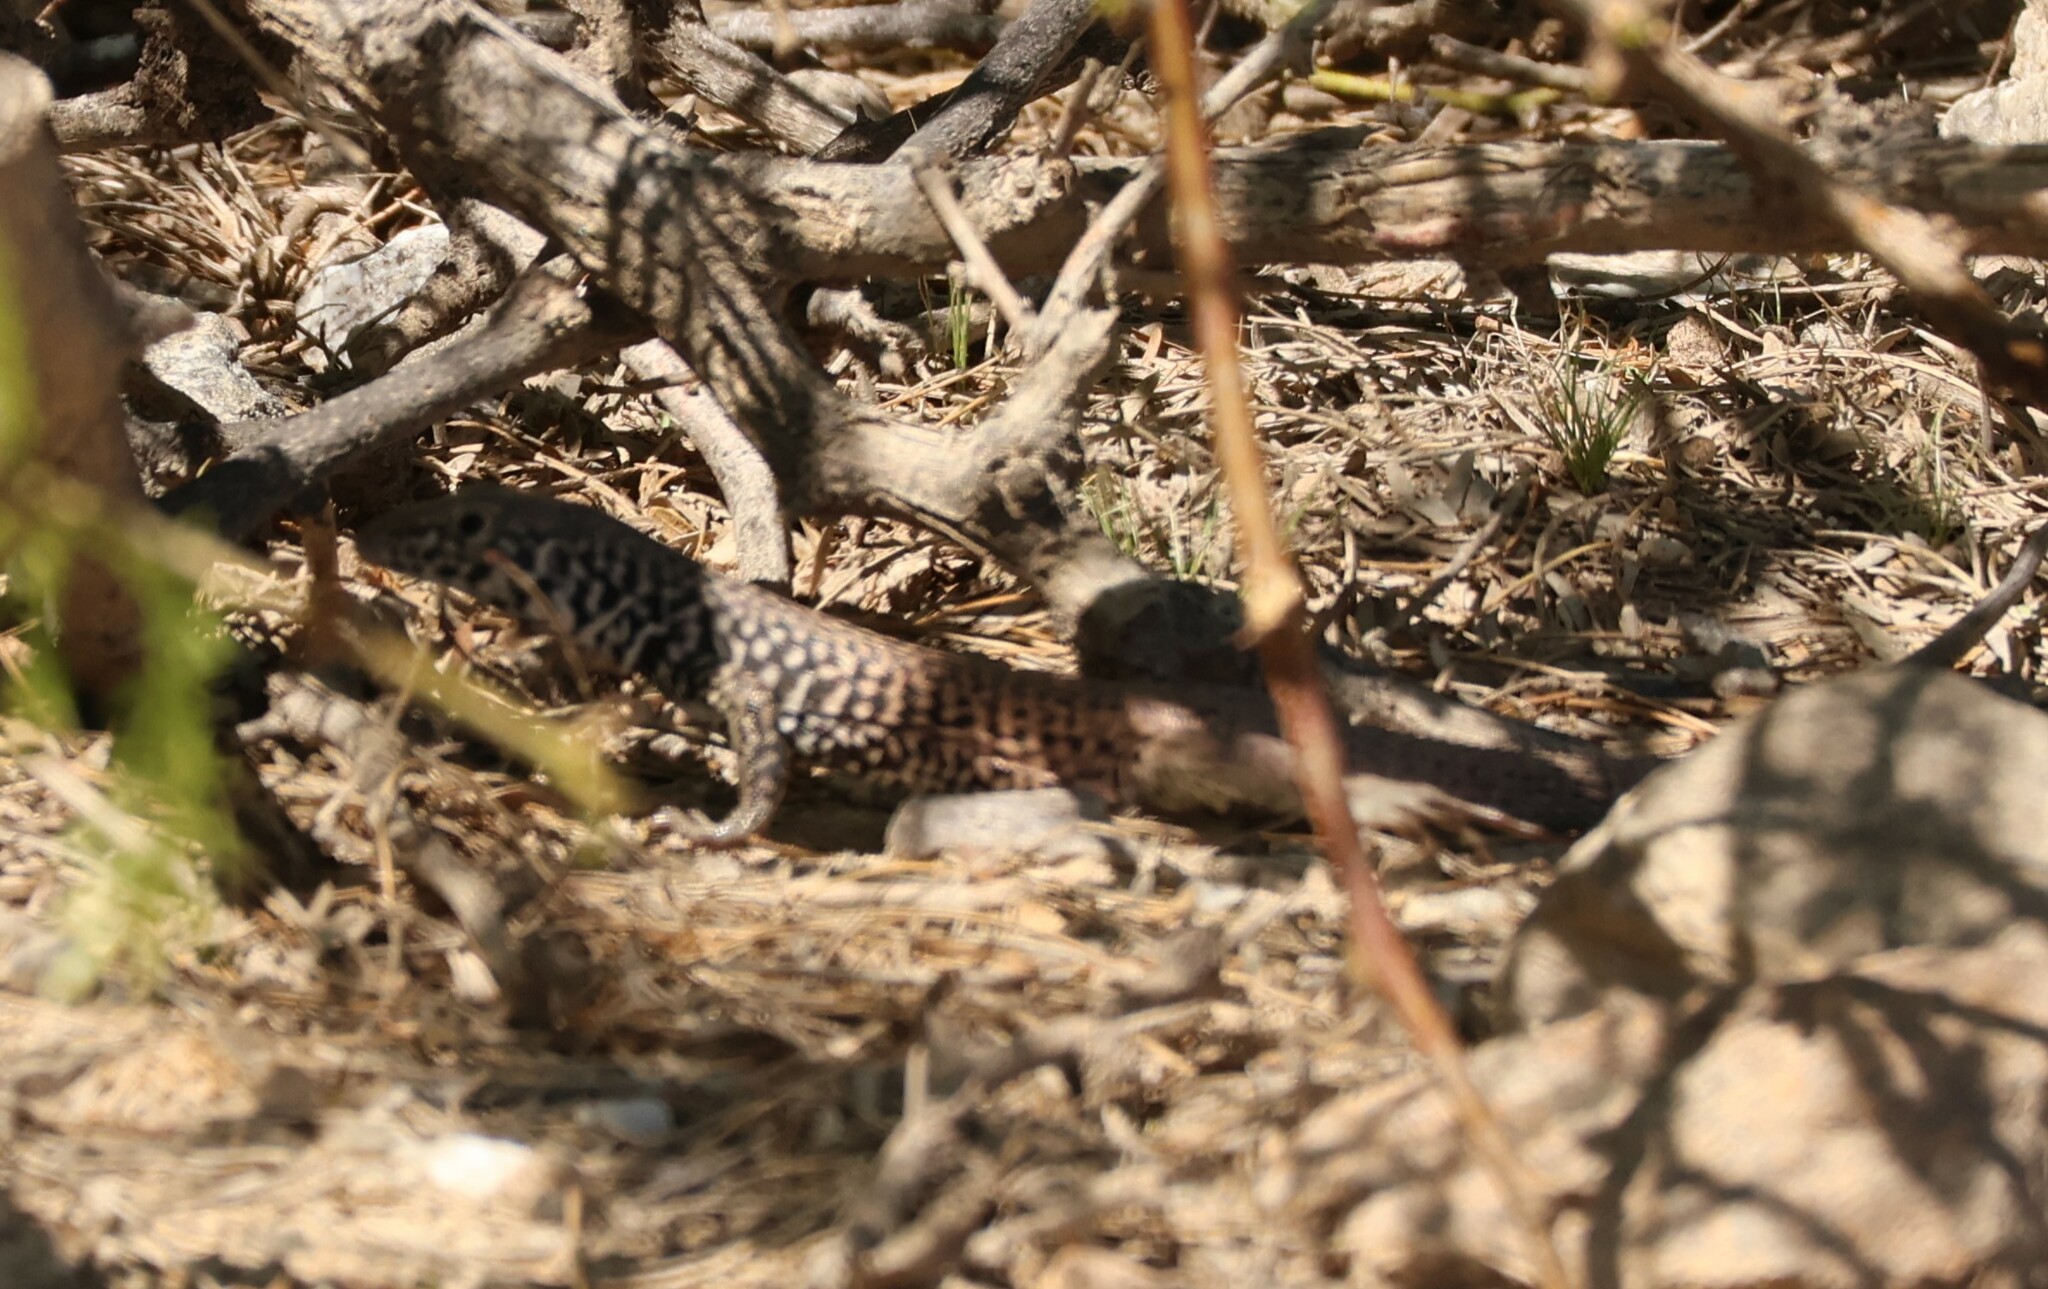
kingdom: Animalia
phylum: Chordata
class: Squamata
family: Teiidae
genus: Aspidoscelis
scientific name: Aspidoscelis tigris
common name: Tiger whiptail
